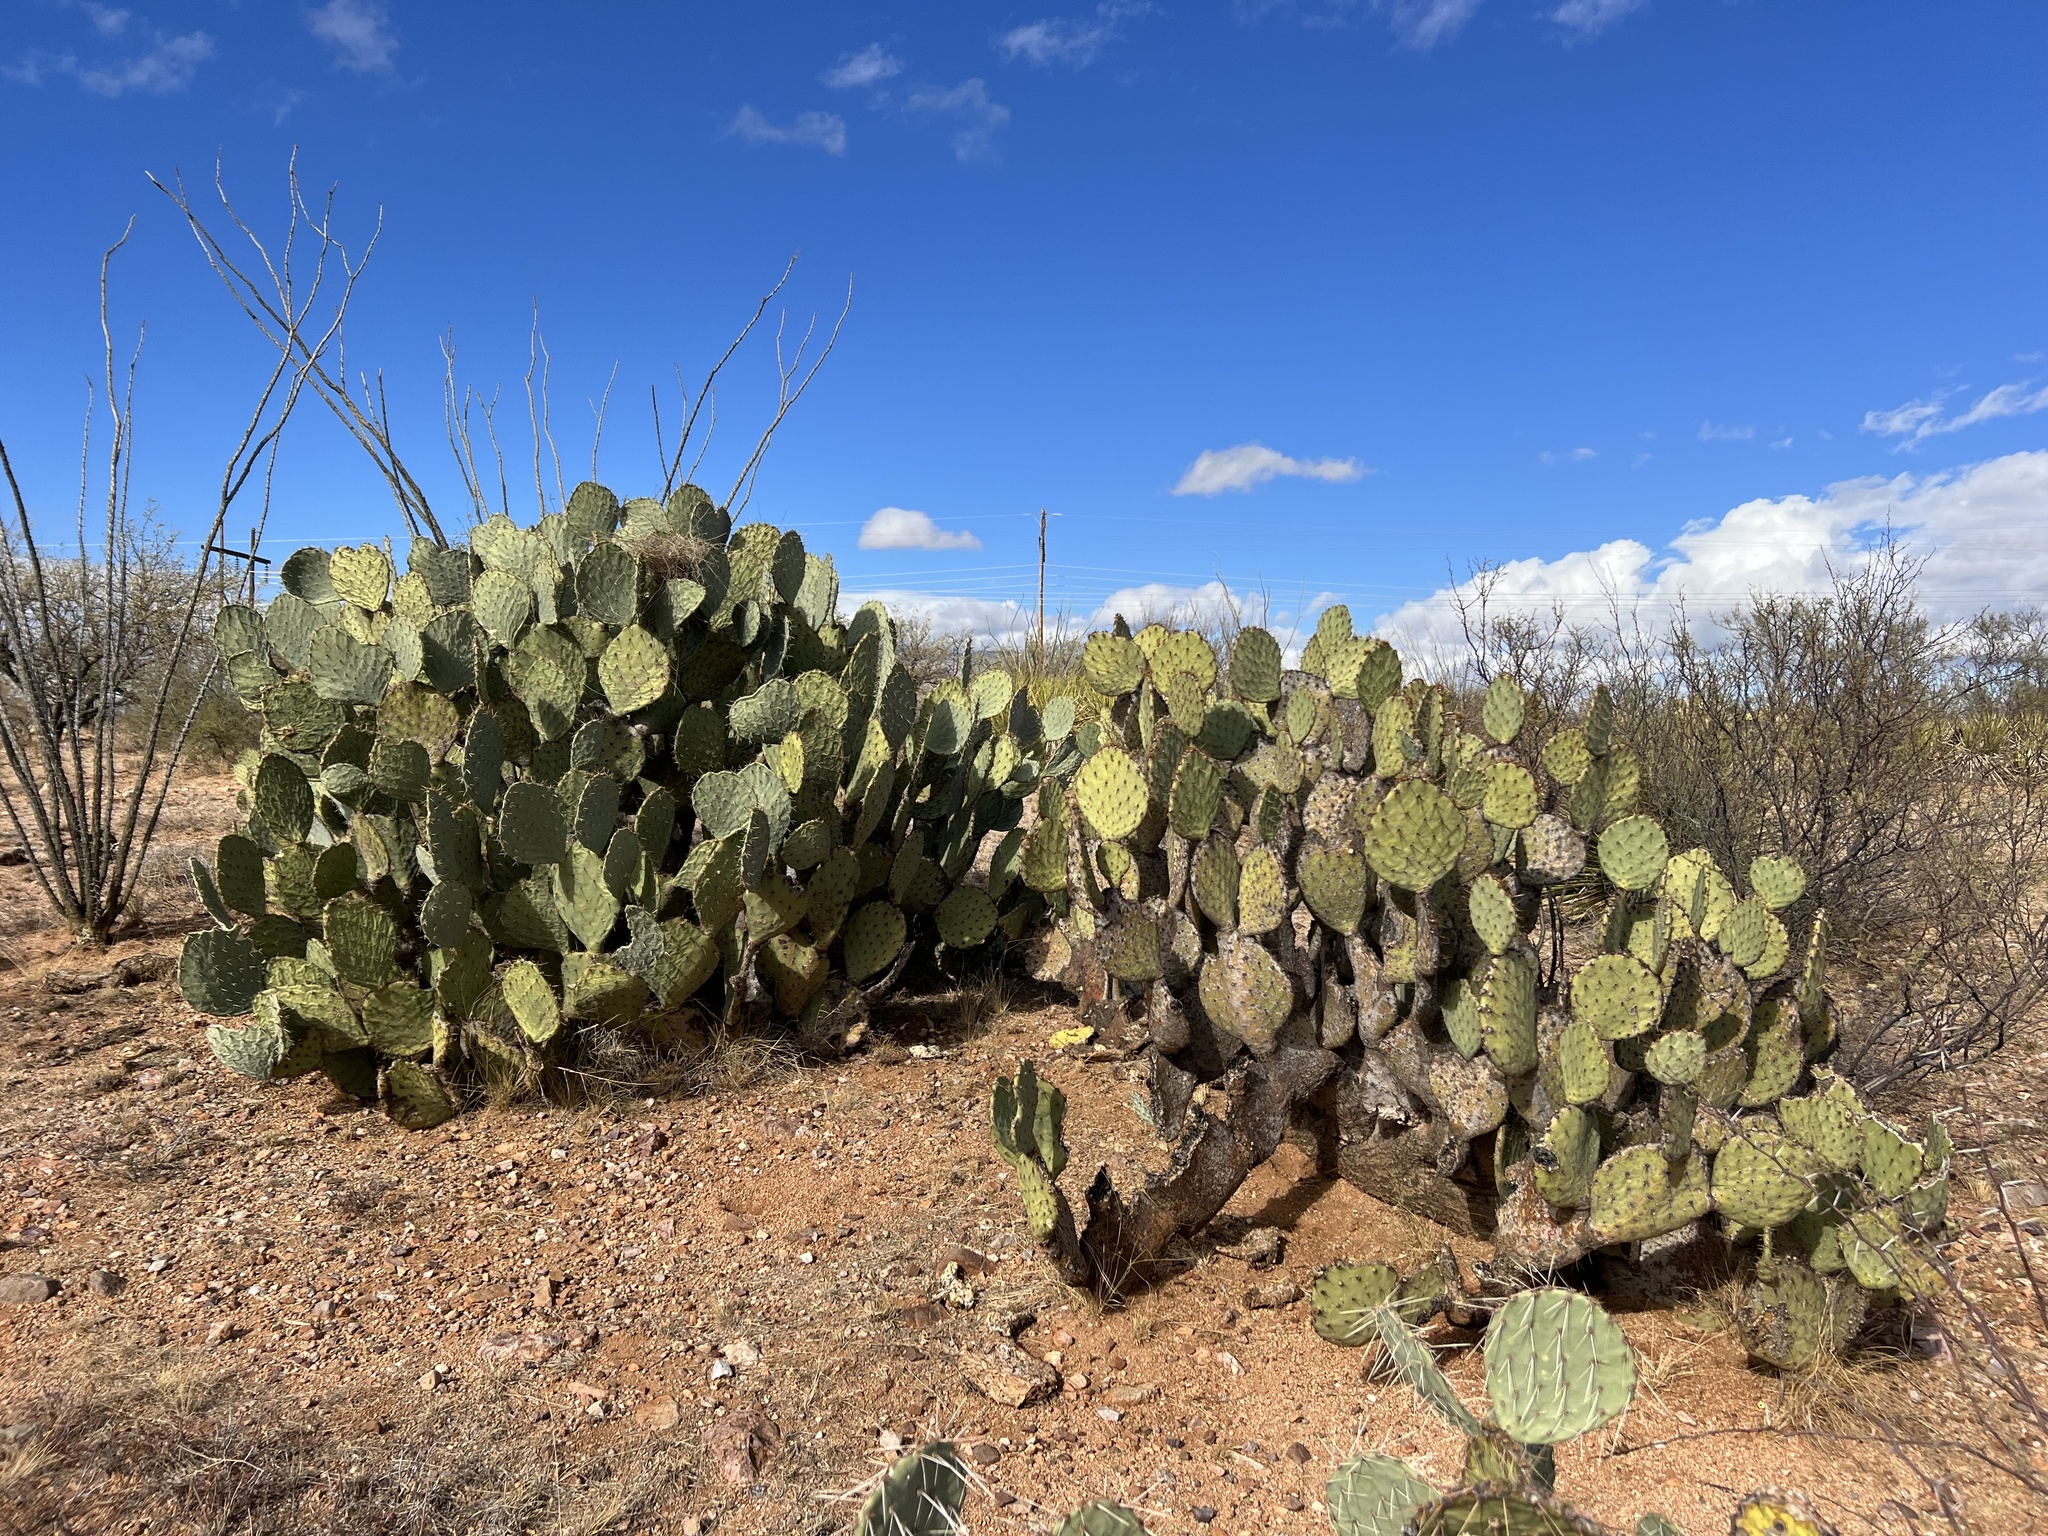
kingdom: Plantae
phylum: Tracheophyta
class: Magnoliopsida
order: Caryophyllales
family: Cactaceae
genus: Opuntia
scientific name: Opuntia engelmannii
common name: Cactus-apple
